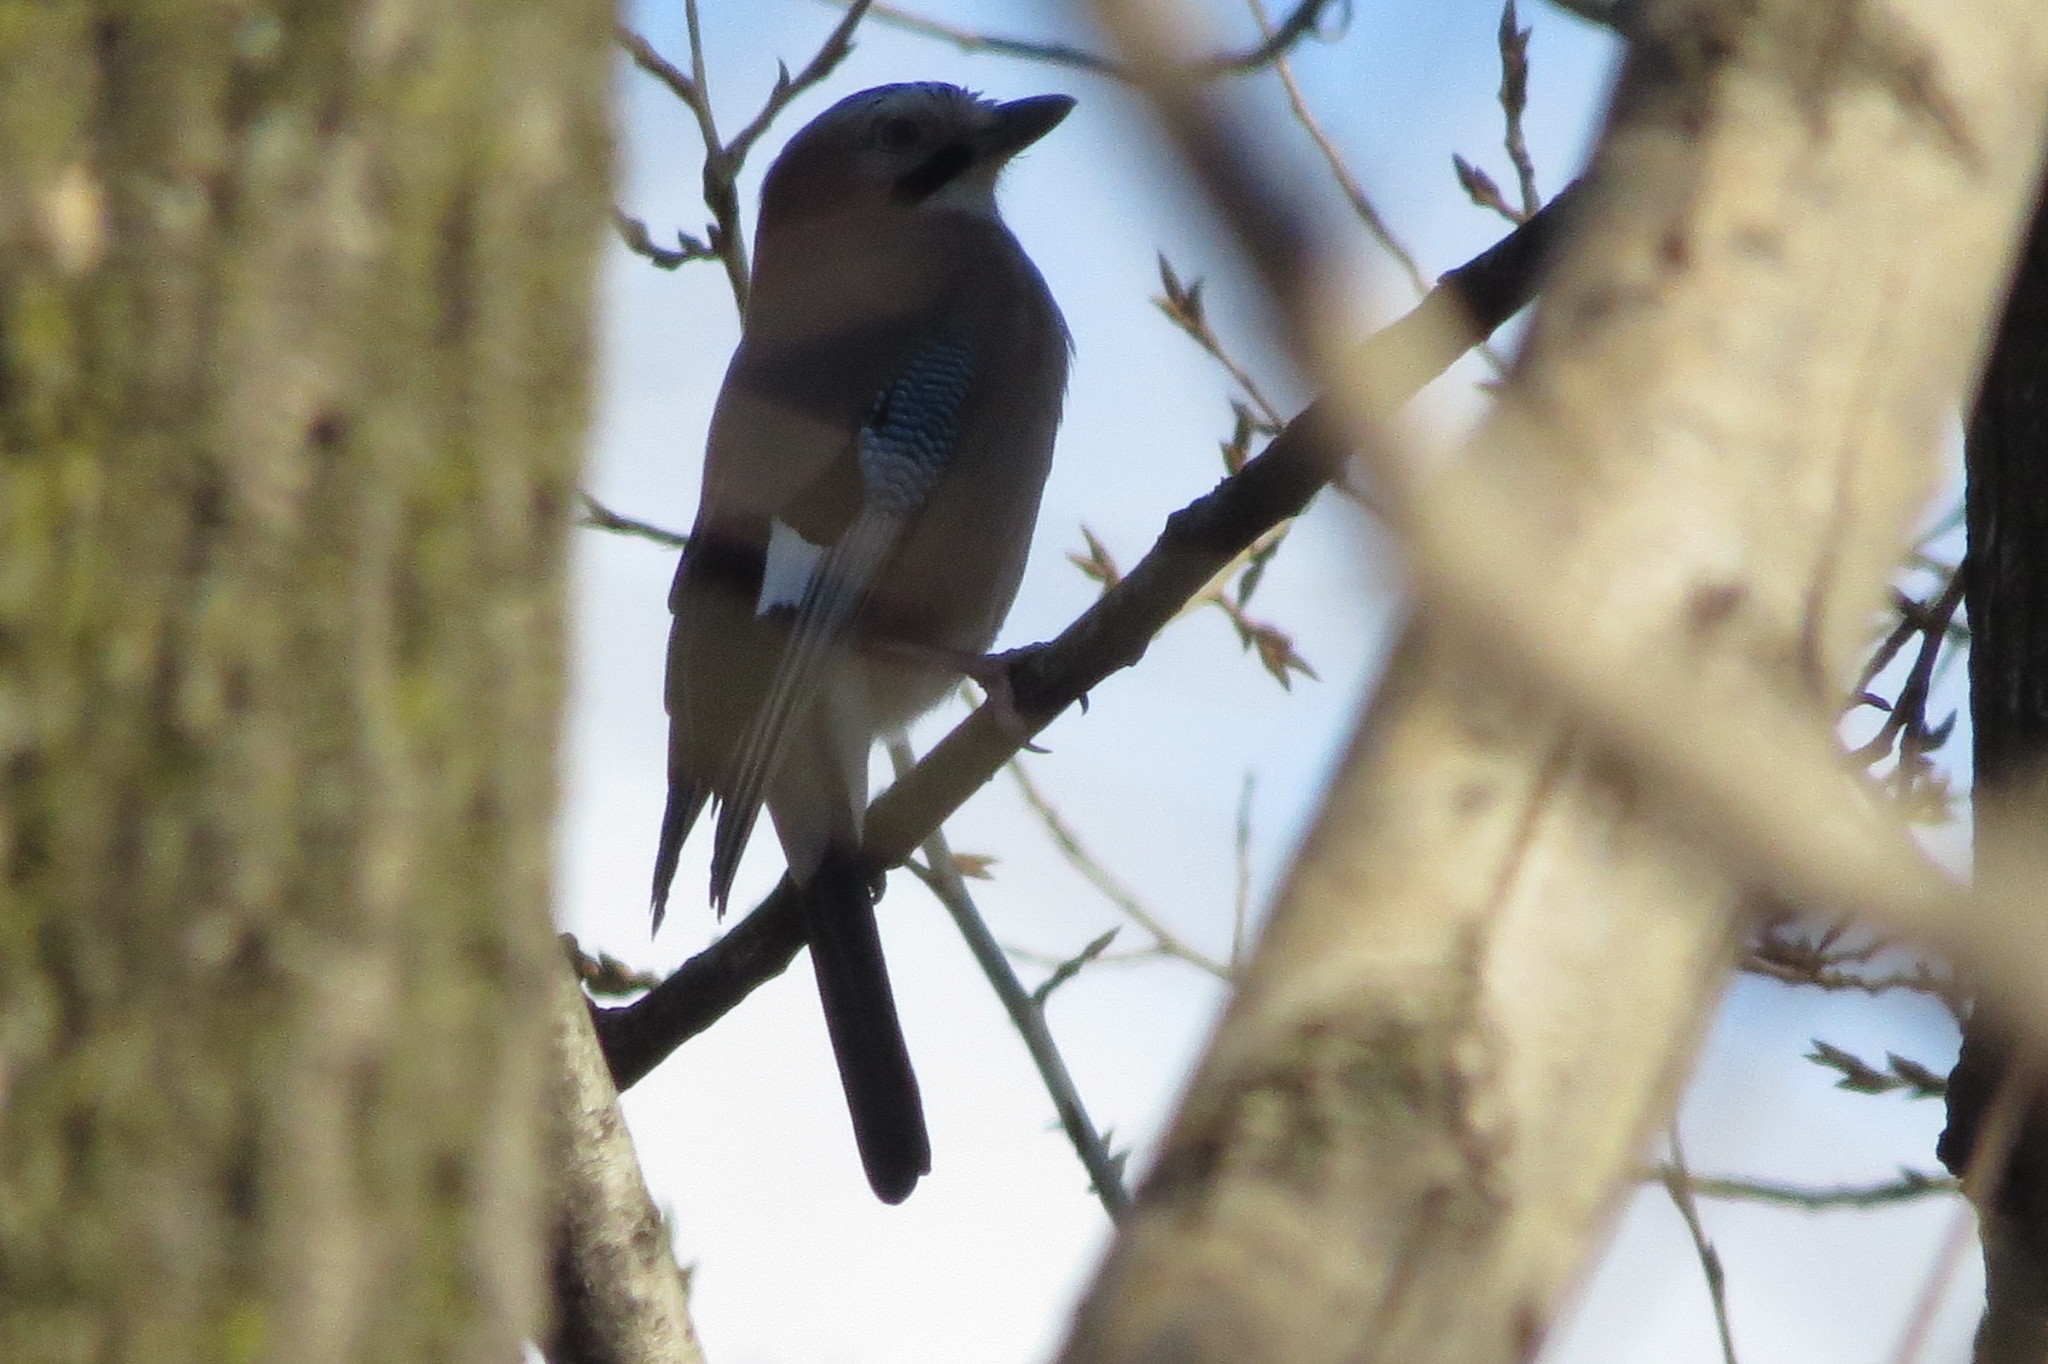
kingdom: Animalia
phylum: Chordata
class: Aves
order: Passeriformes
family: Corvidae
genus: Garrulus
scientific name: Garrulus glandarius
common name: Eurasian jay
